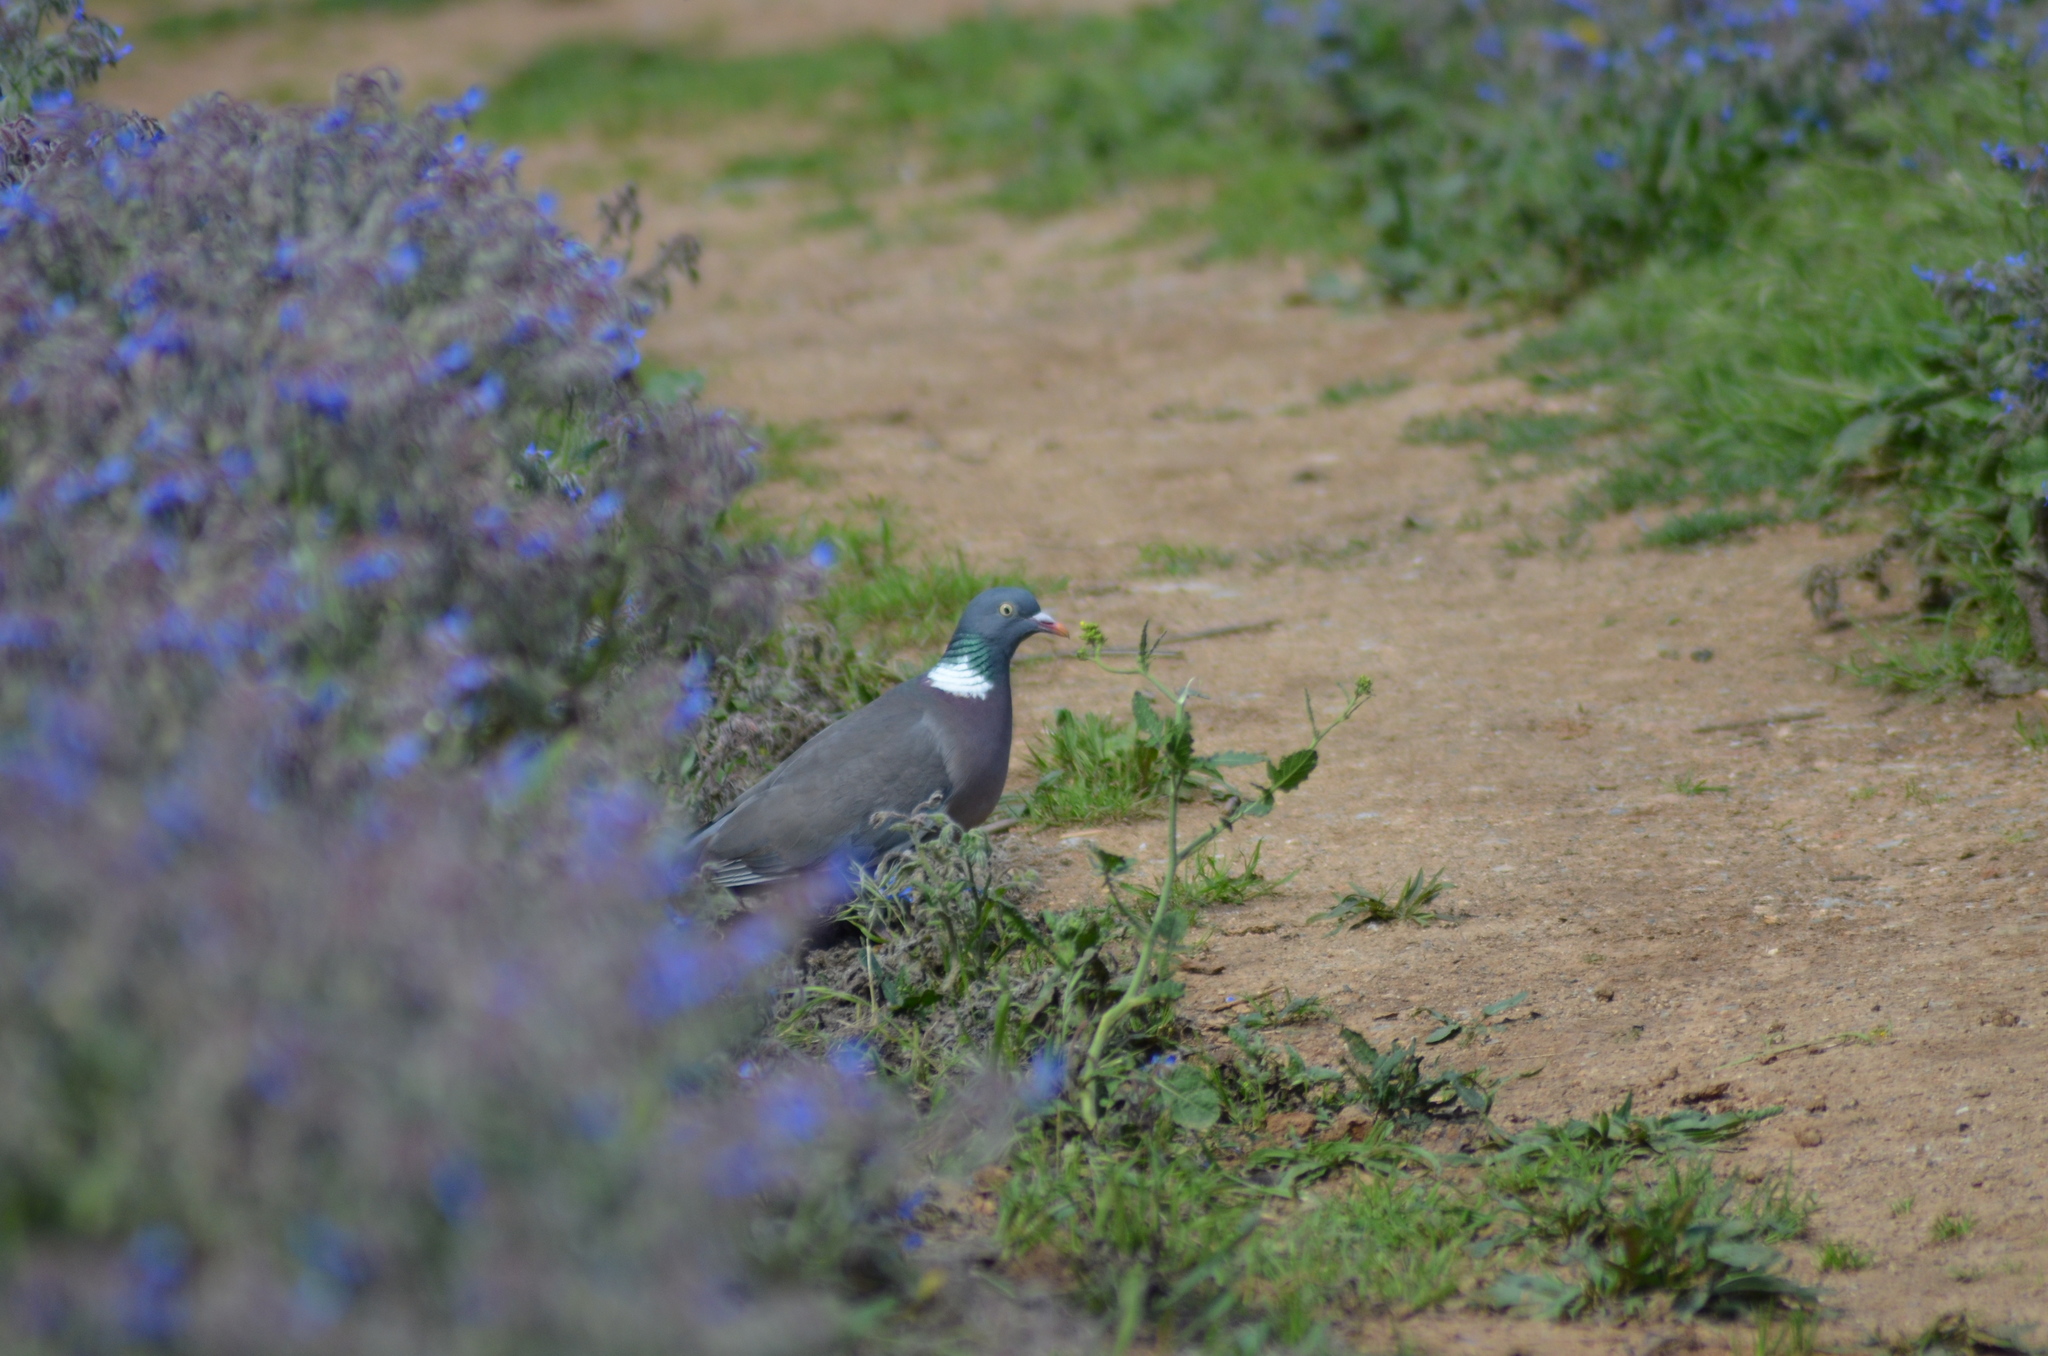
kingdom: Animalia
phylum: Chordata
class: Aves
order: Columbiformes
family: Columbidae
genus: Columba
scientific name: Columba palumbus
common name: Common wood pigeon
